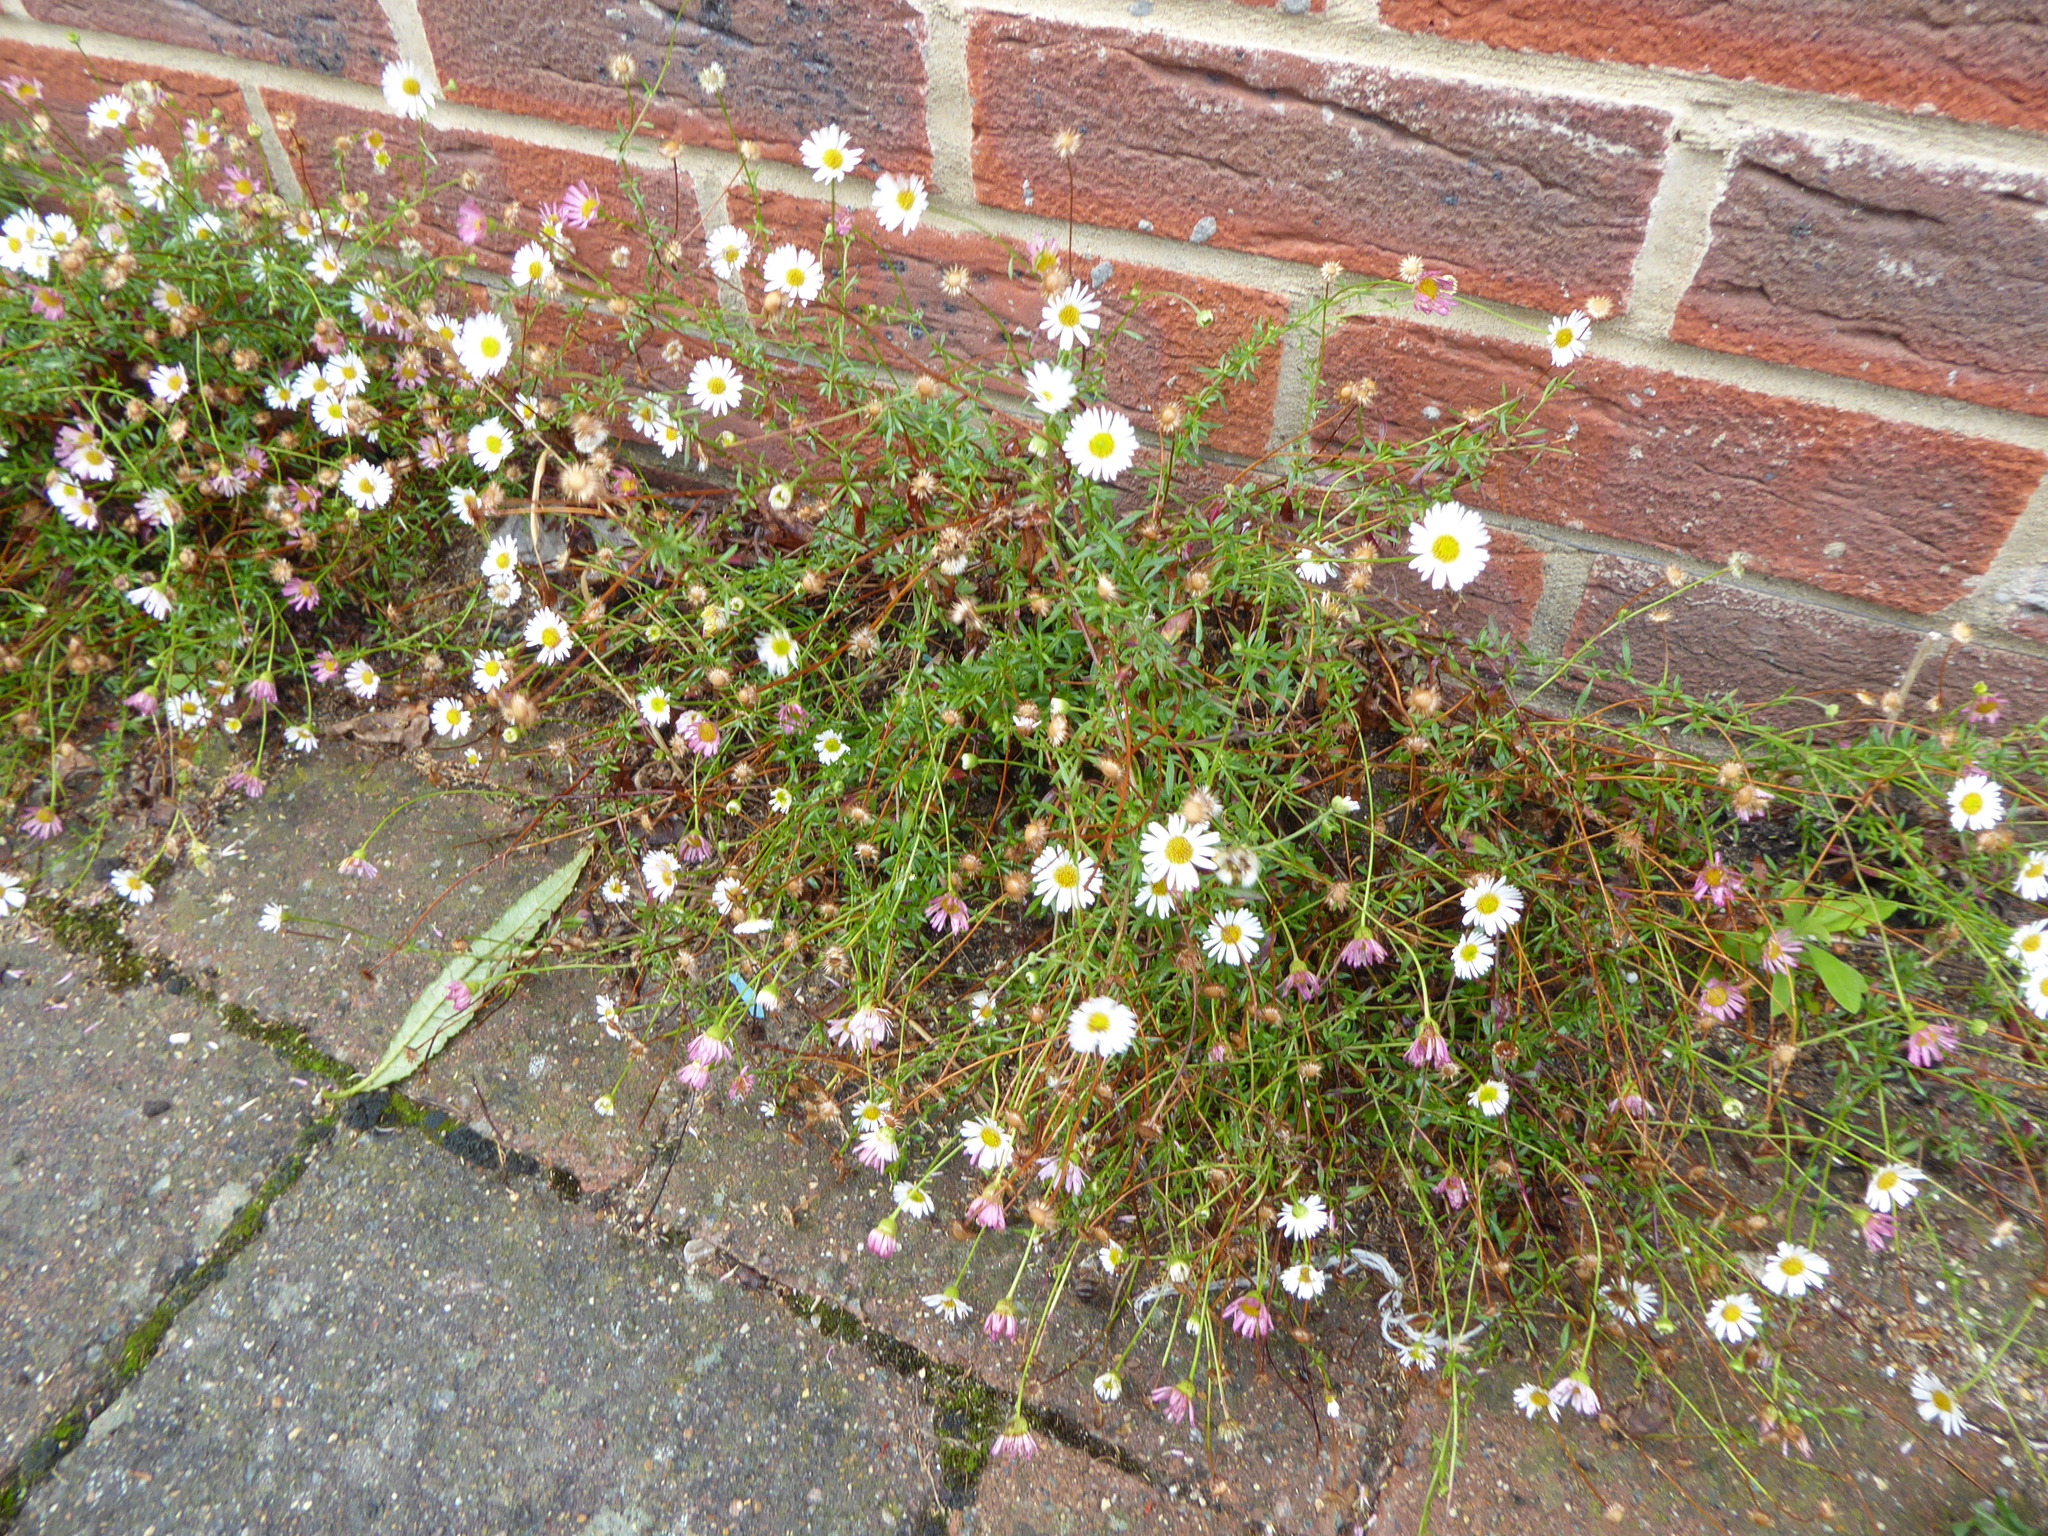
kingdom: Plantae
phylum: Tracheophyta
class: Magnoliopsida
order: Asterales
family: Asteraceae
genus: Erigeron
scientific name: Erigeron karvinskianus
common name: Mexican fleabane
